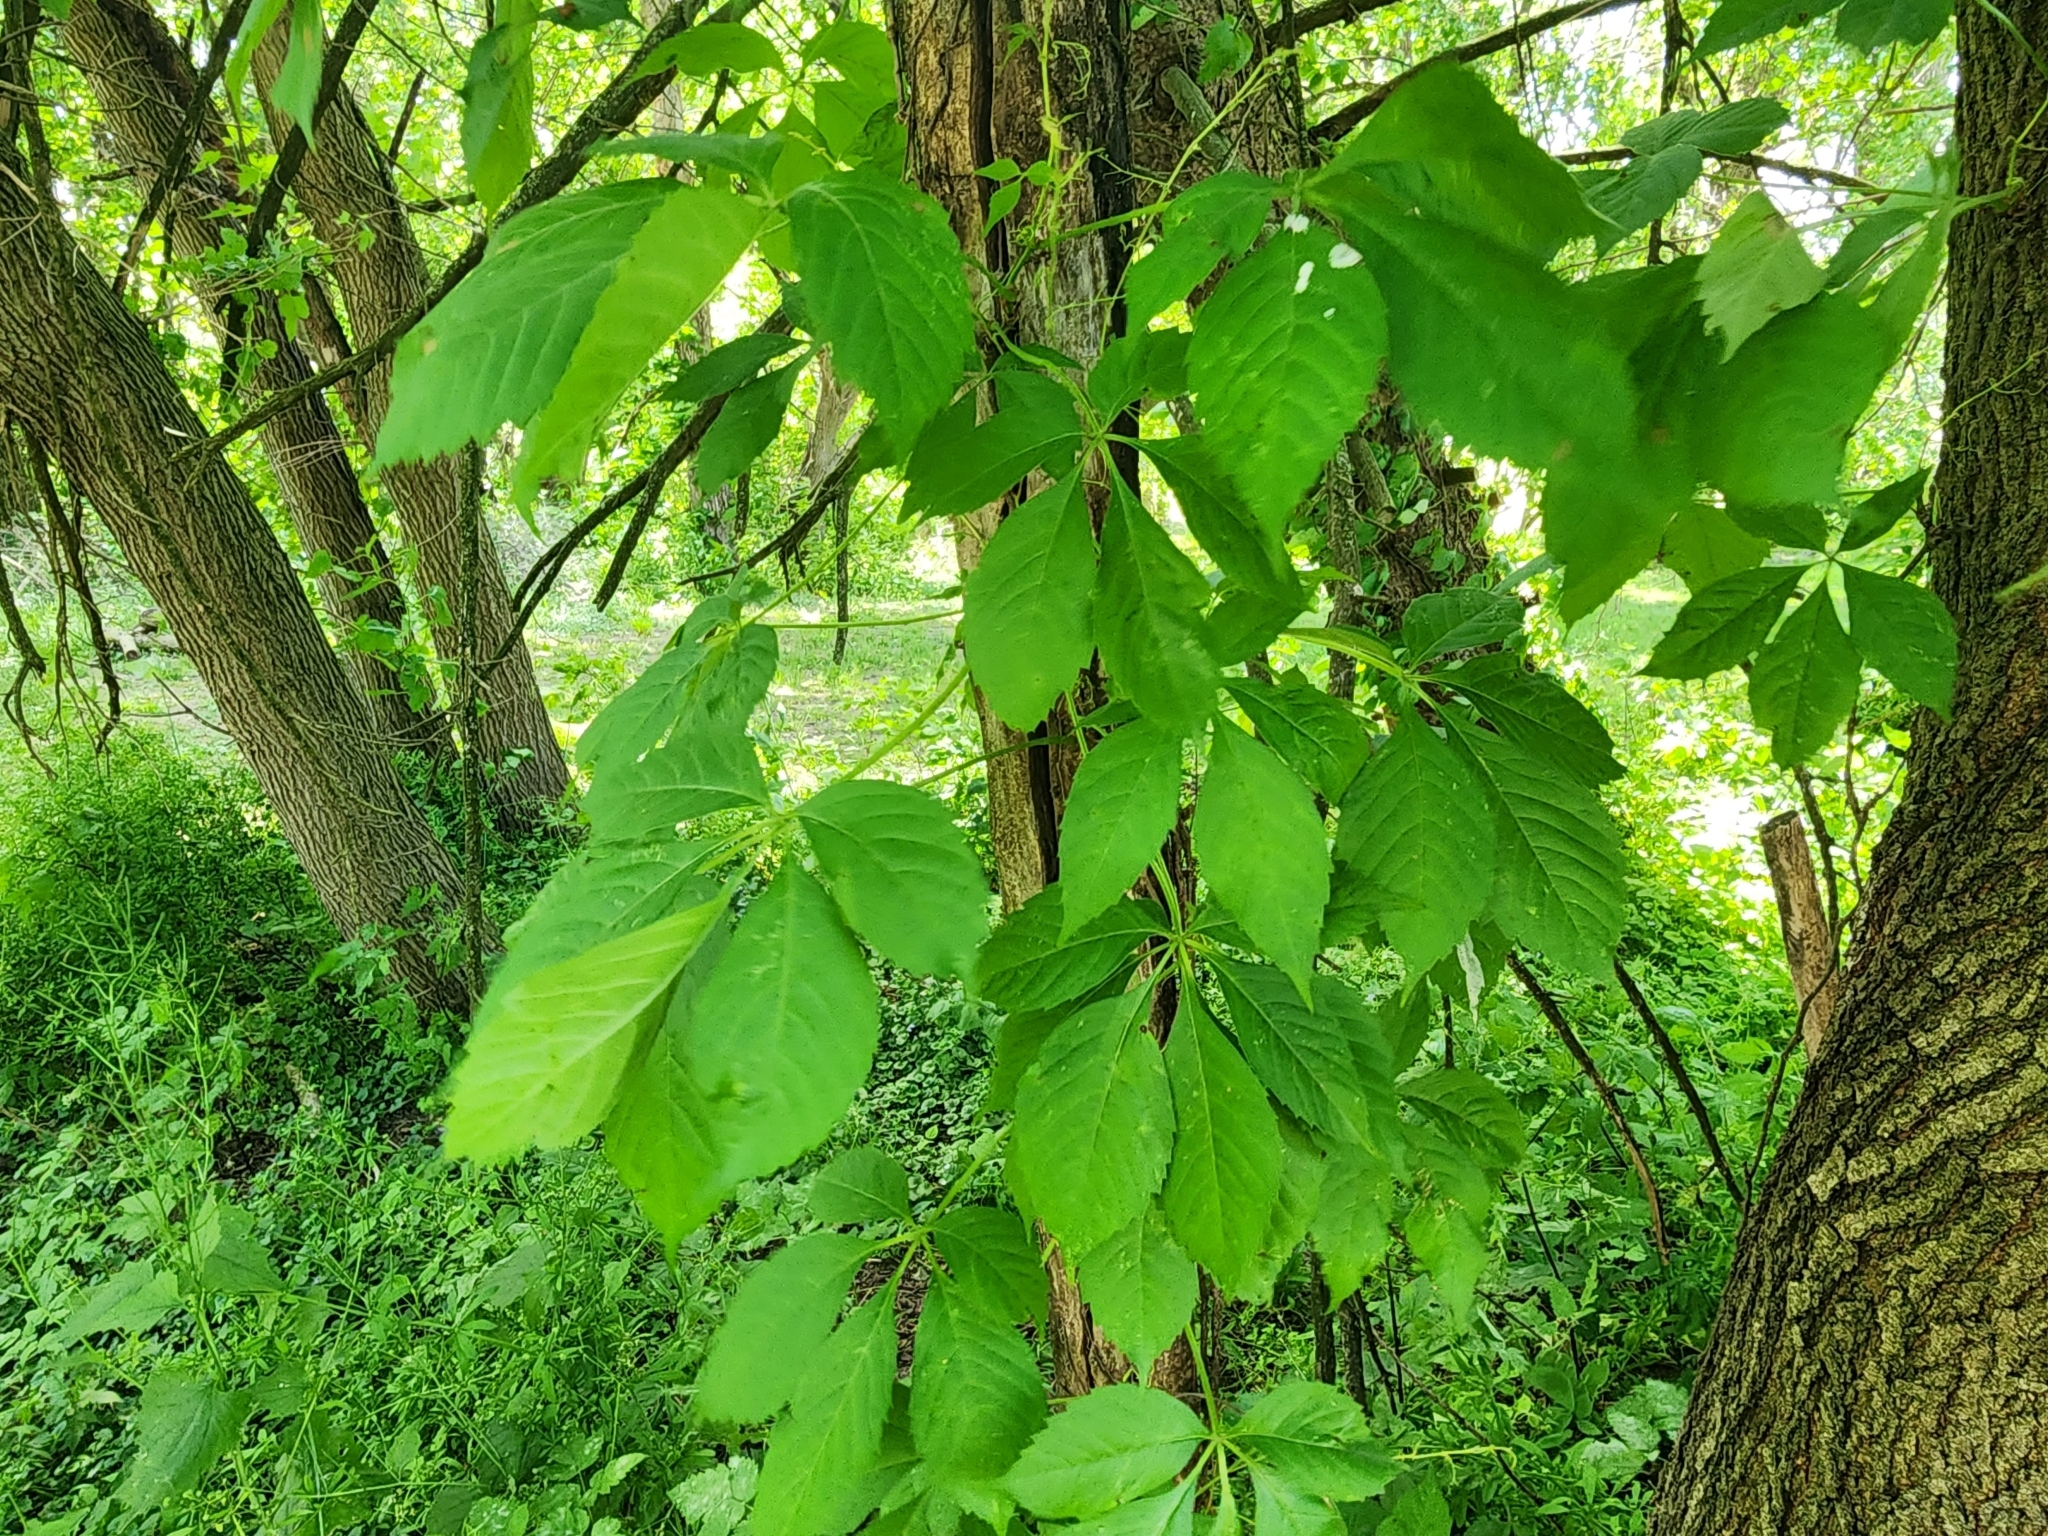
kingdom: Plantae
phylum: Tracheophyta
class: Magnoliopsida
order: Vitales
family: Vitaceae
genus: Parthenocissus
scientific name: Parthenocissus quinquefolia
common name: Virginia-creeper
